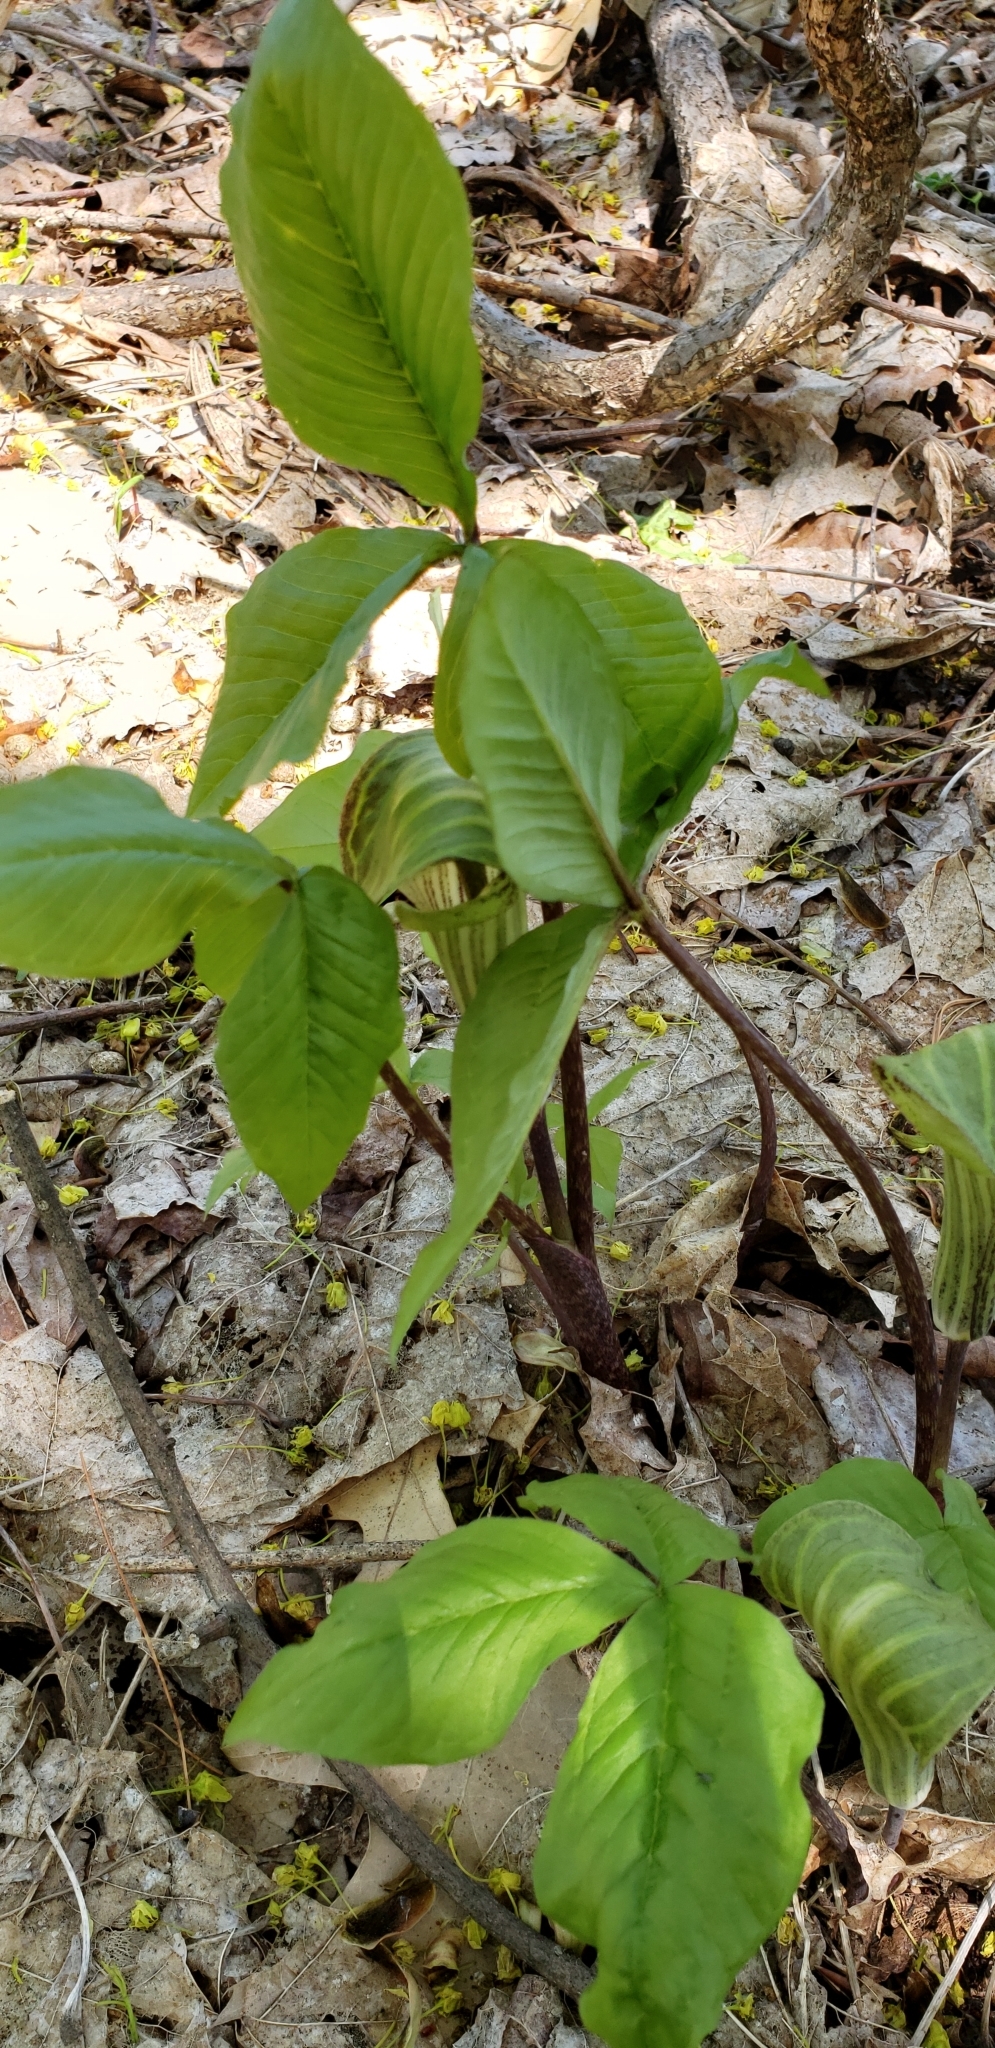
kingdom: Plantae
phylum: Tracheophyta
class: Liliopsida
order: Alismatales
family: Araceae
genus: Arisaema
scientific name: Arisaema triphyllum
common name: Jack-in-the-pulpit
